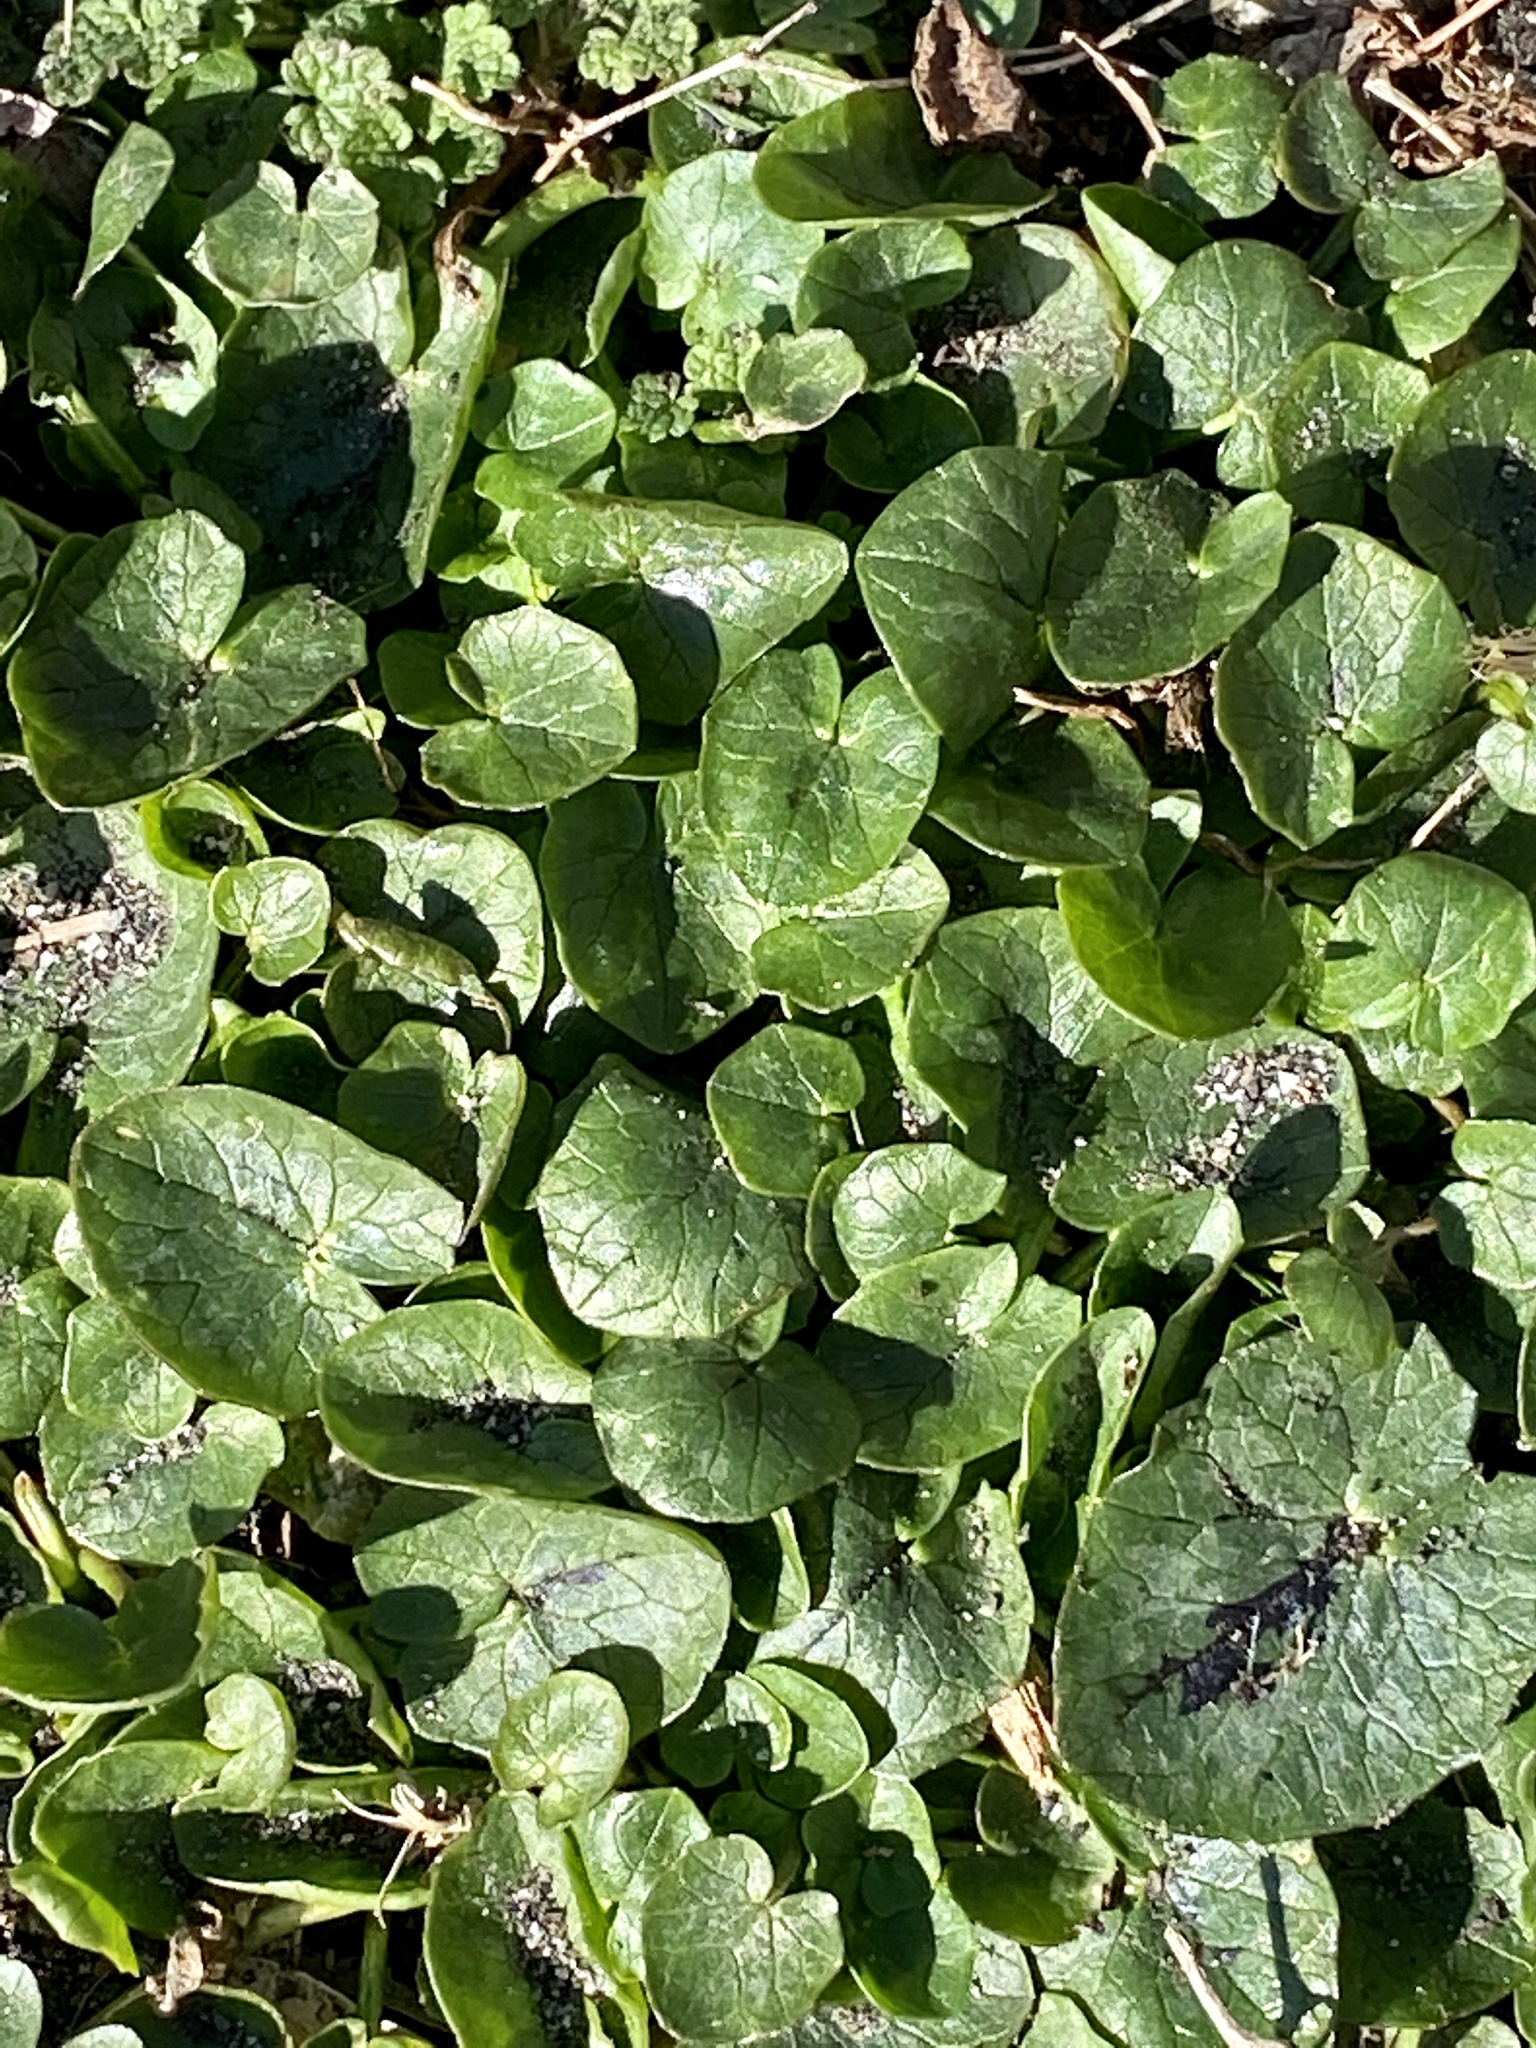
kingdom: Plantae
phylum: Tracheophyta
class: Magnoliopsida
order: Ranunculales
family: Ranunculaceae
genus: Ficaria
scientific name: Ficaria verna
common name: Lesser celandine
